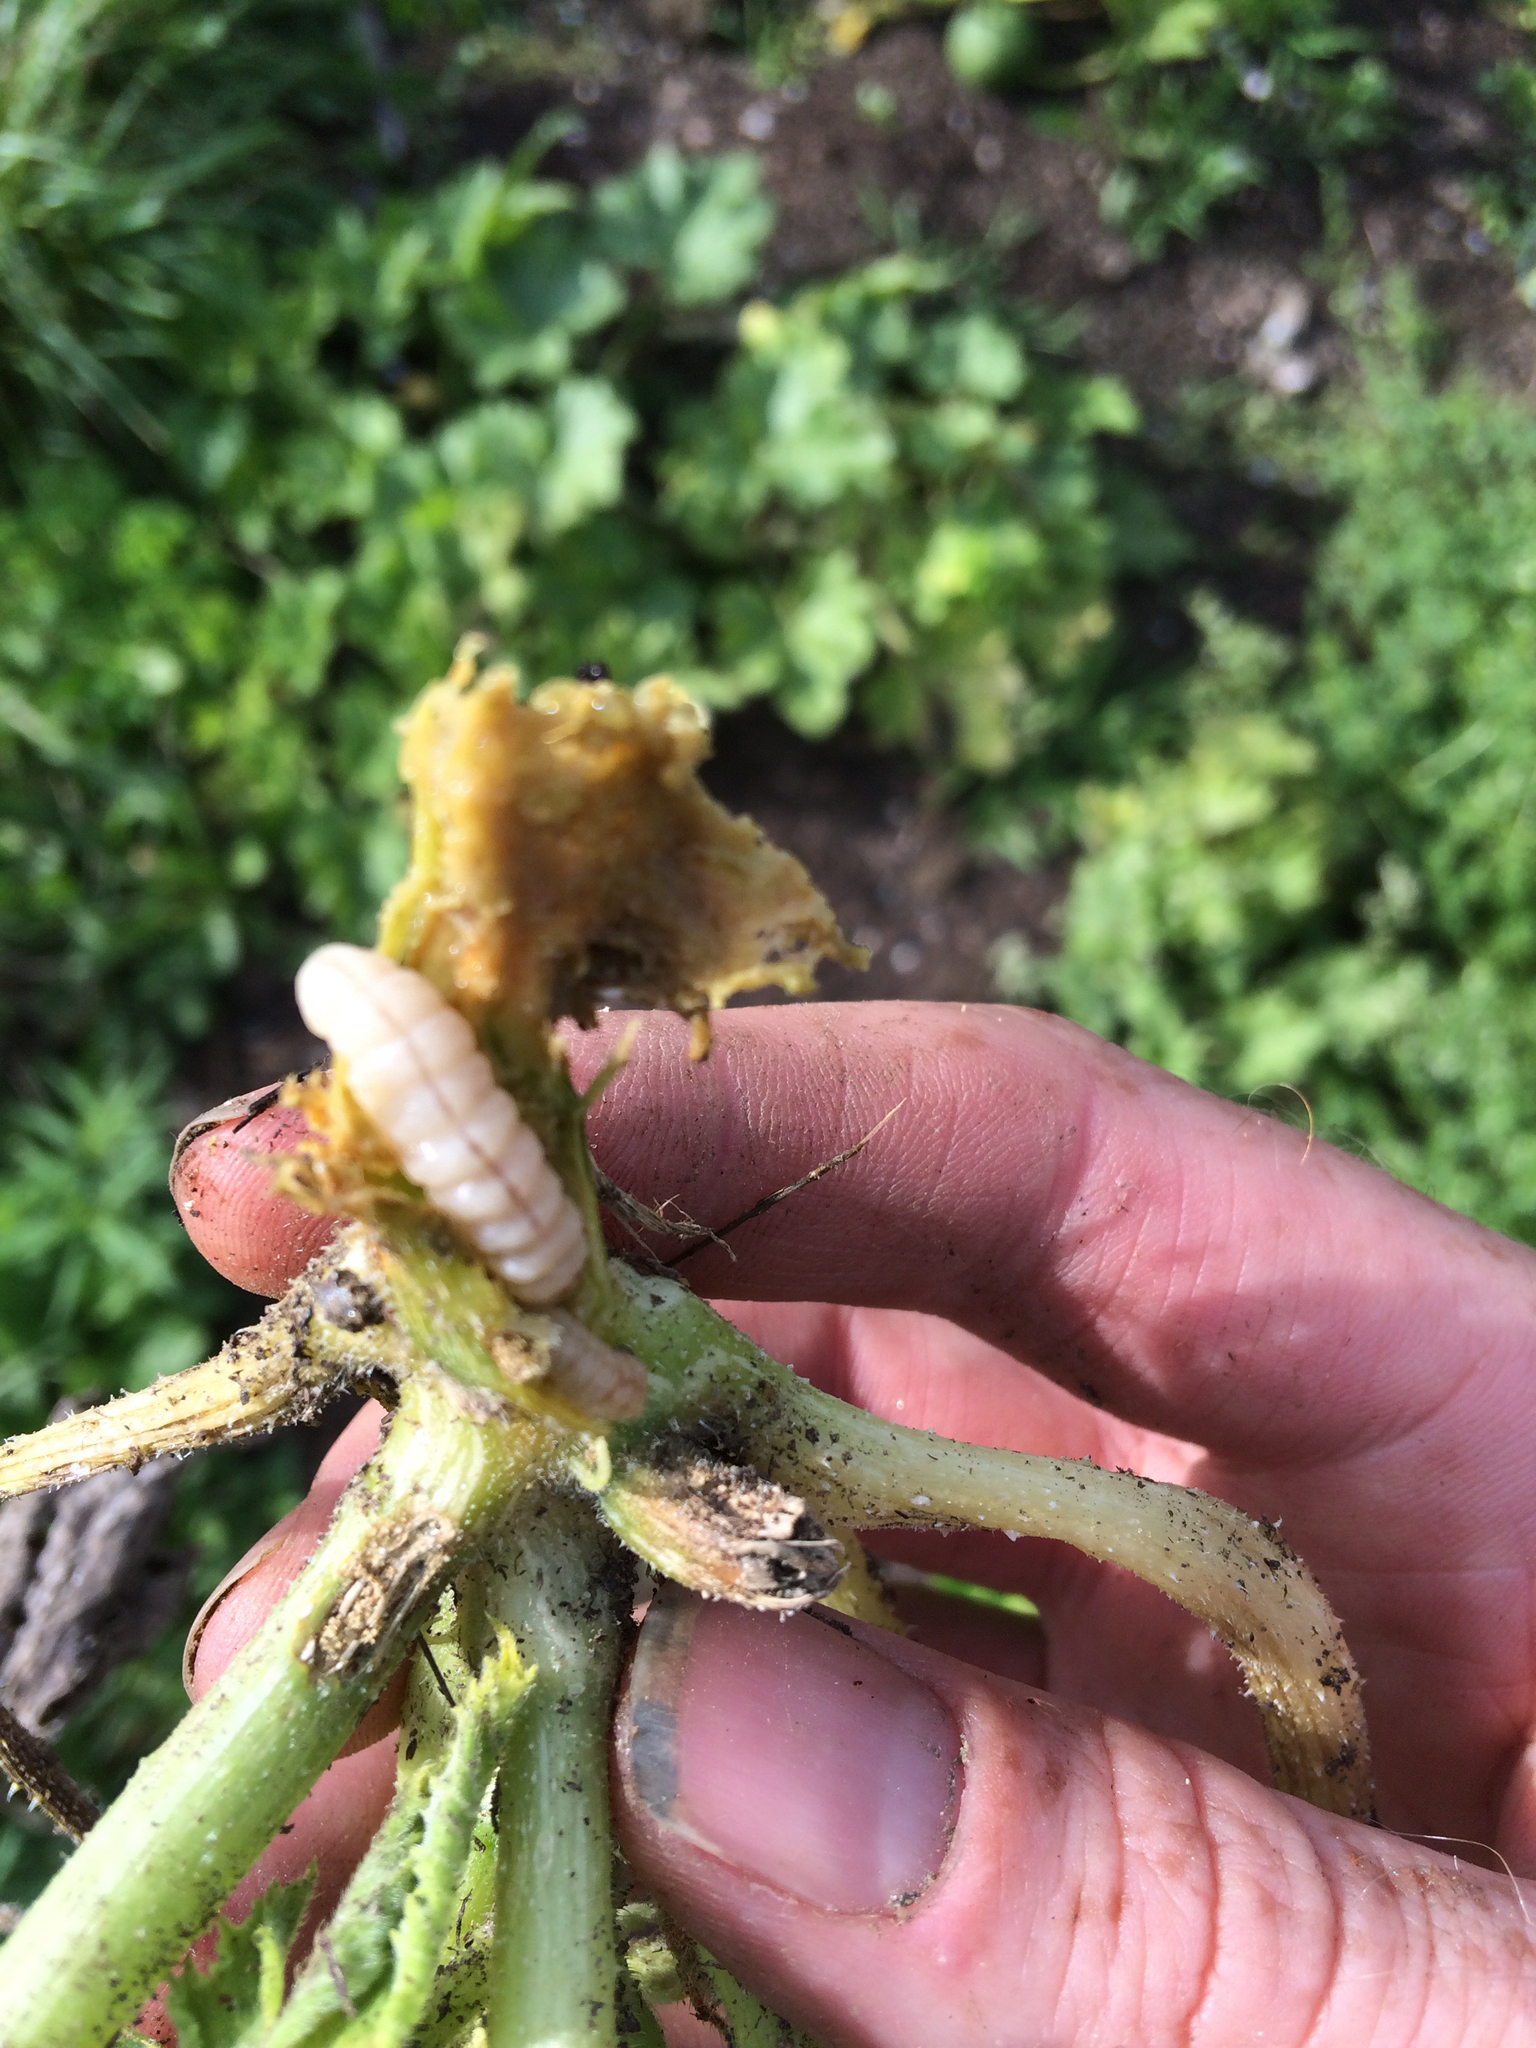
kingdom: Animalia
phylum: Arthropoda
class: Insecta
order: Lepidoptera
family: Sesiidae
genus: Eichlinia
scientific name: Eichlinia cucurbitae
